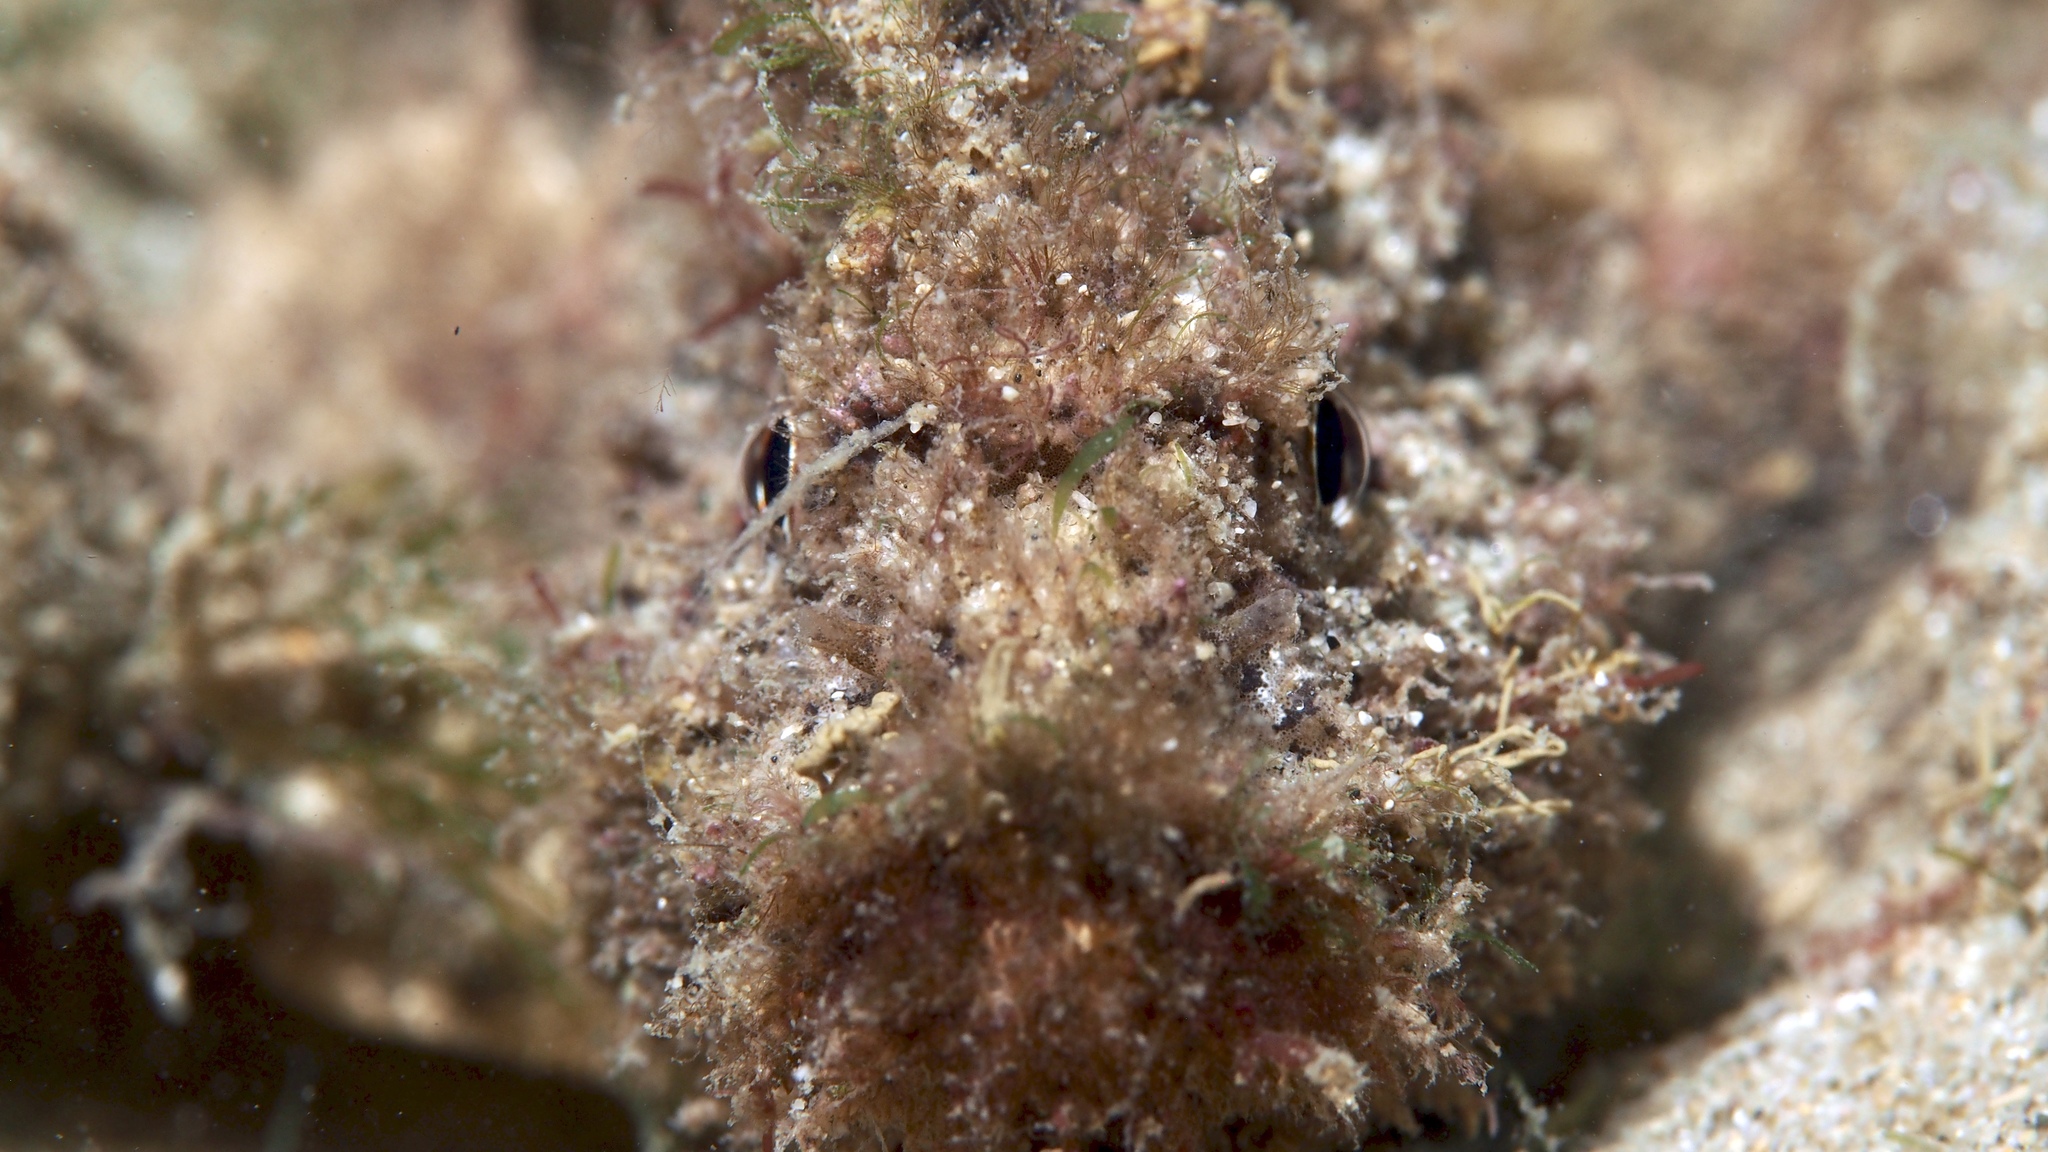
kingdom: Animalia
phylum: Chordata
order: Scorpaeniformes
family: Aploactinidae
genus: Aploactisoma
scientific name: Aploactisoma milesii
